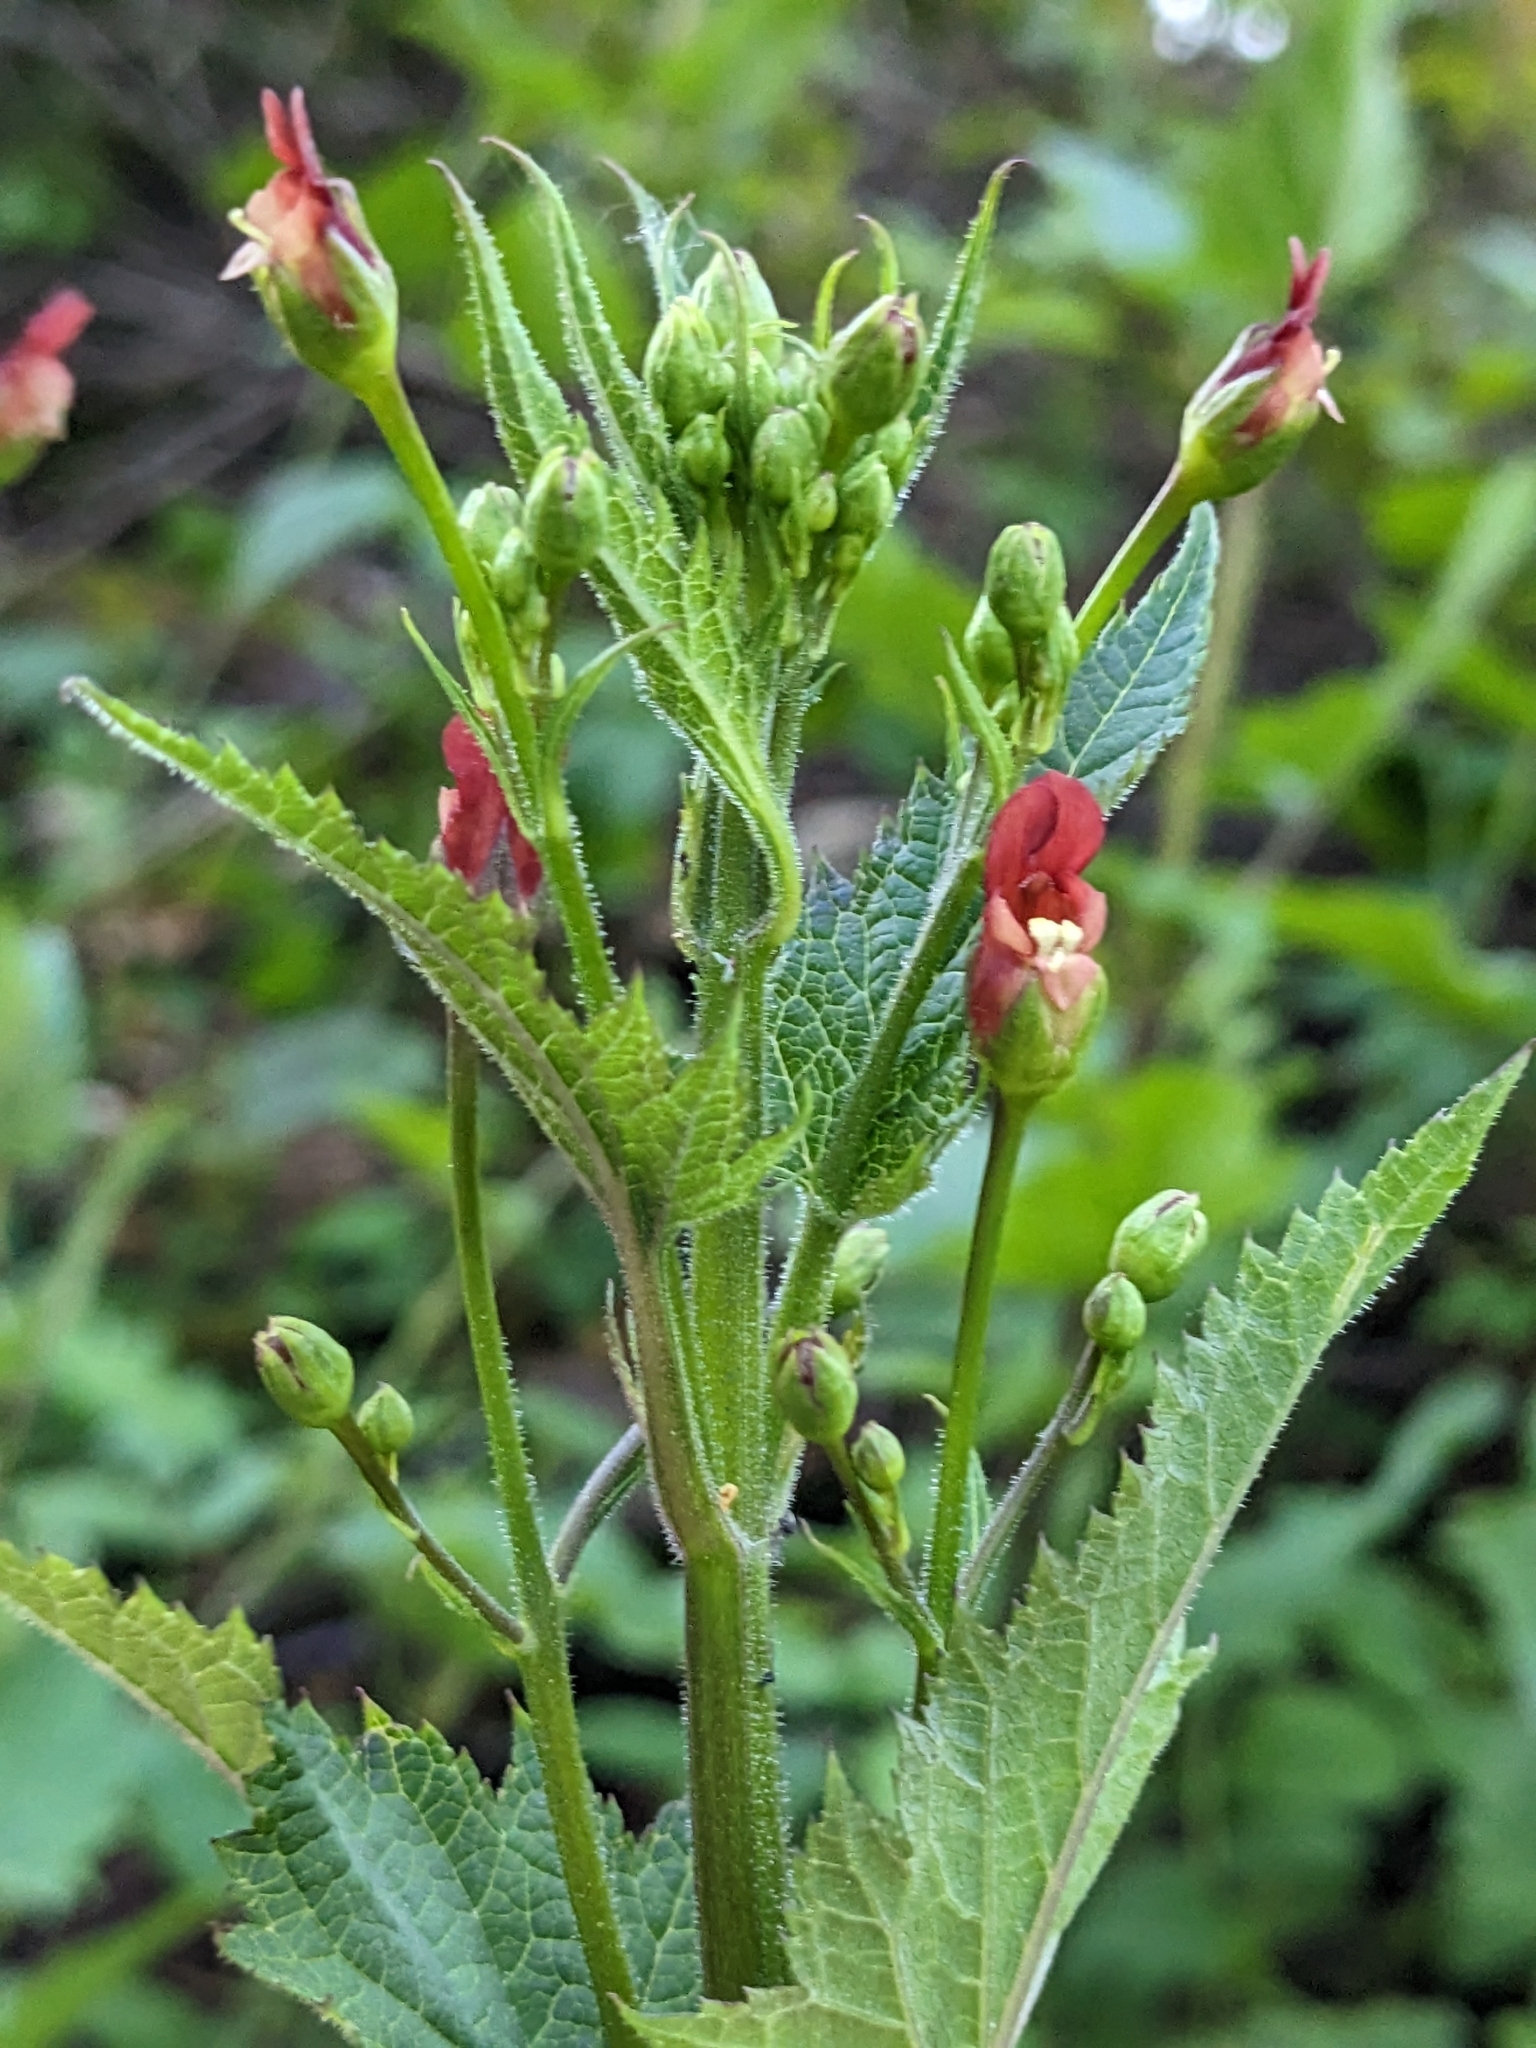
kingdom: Plantae
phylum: Tracheophyta
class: Magnoliopsida
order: Lamiales
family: Scrophulariaceae
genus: Scrophularia
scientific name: Scrophularia californica
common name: California figwort
